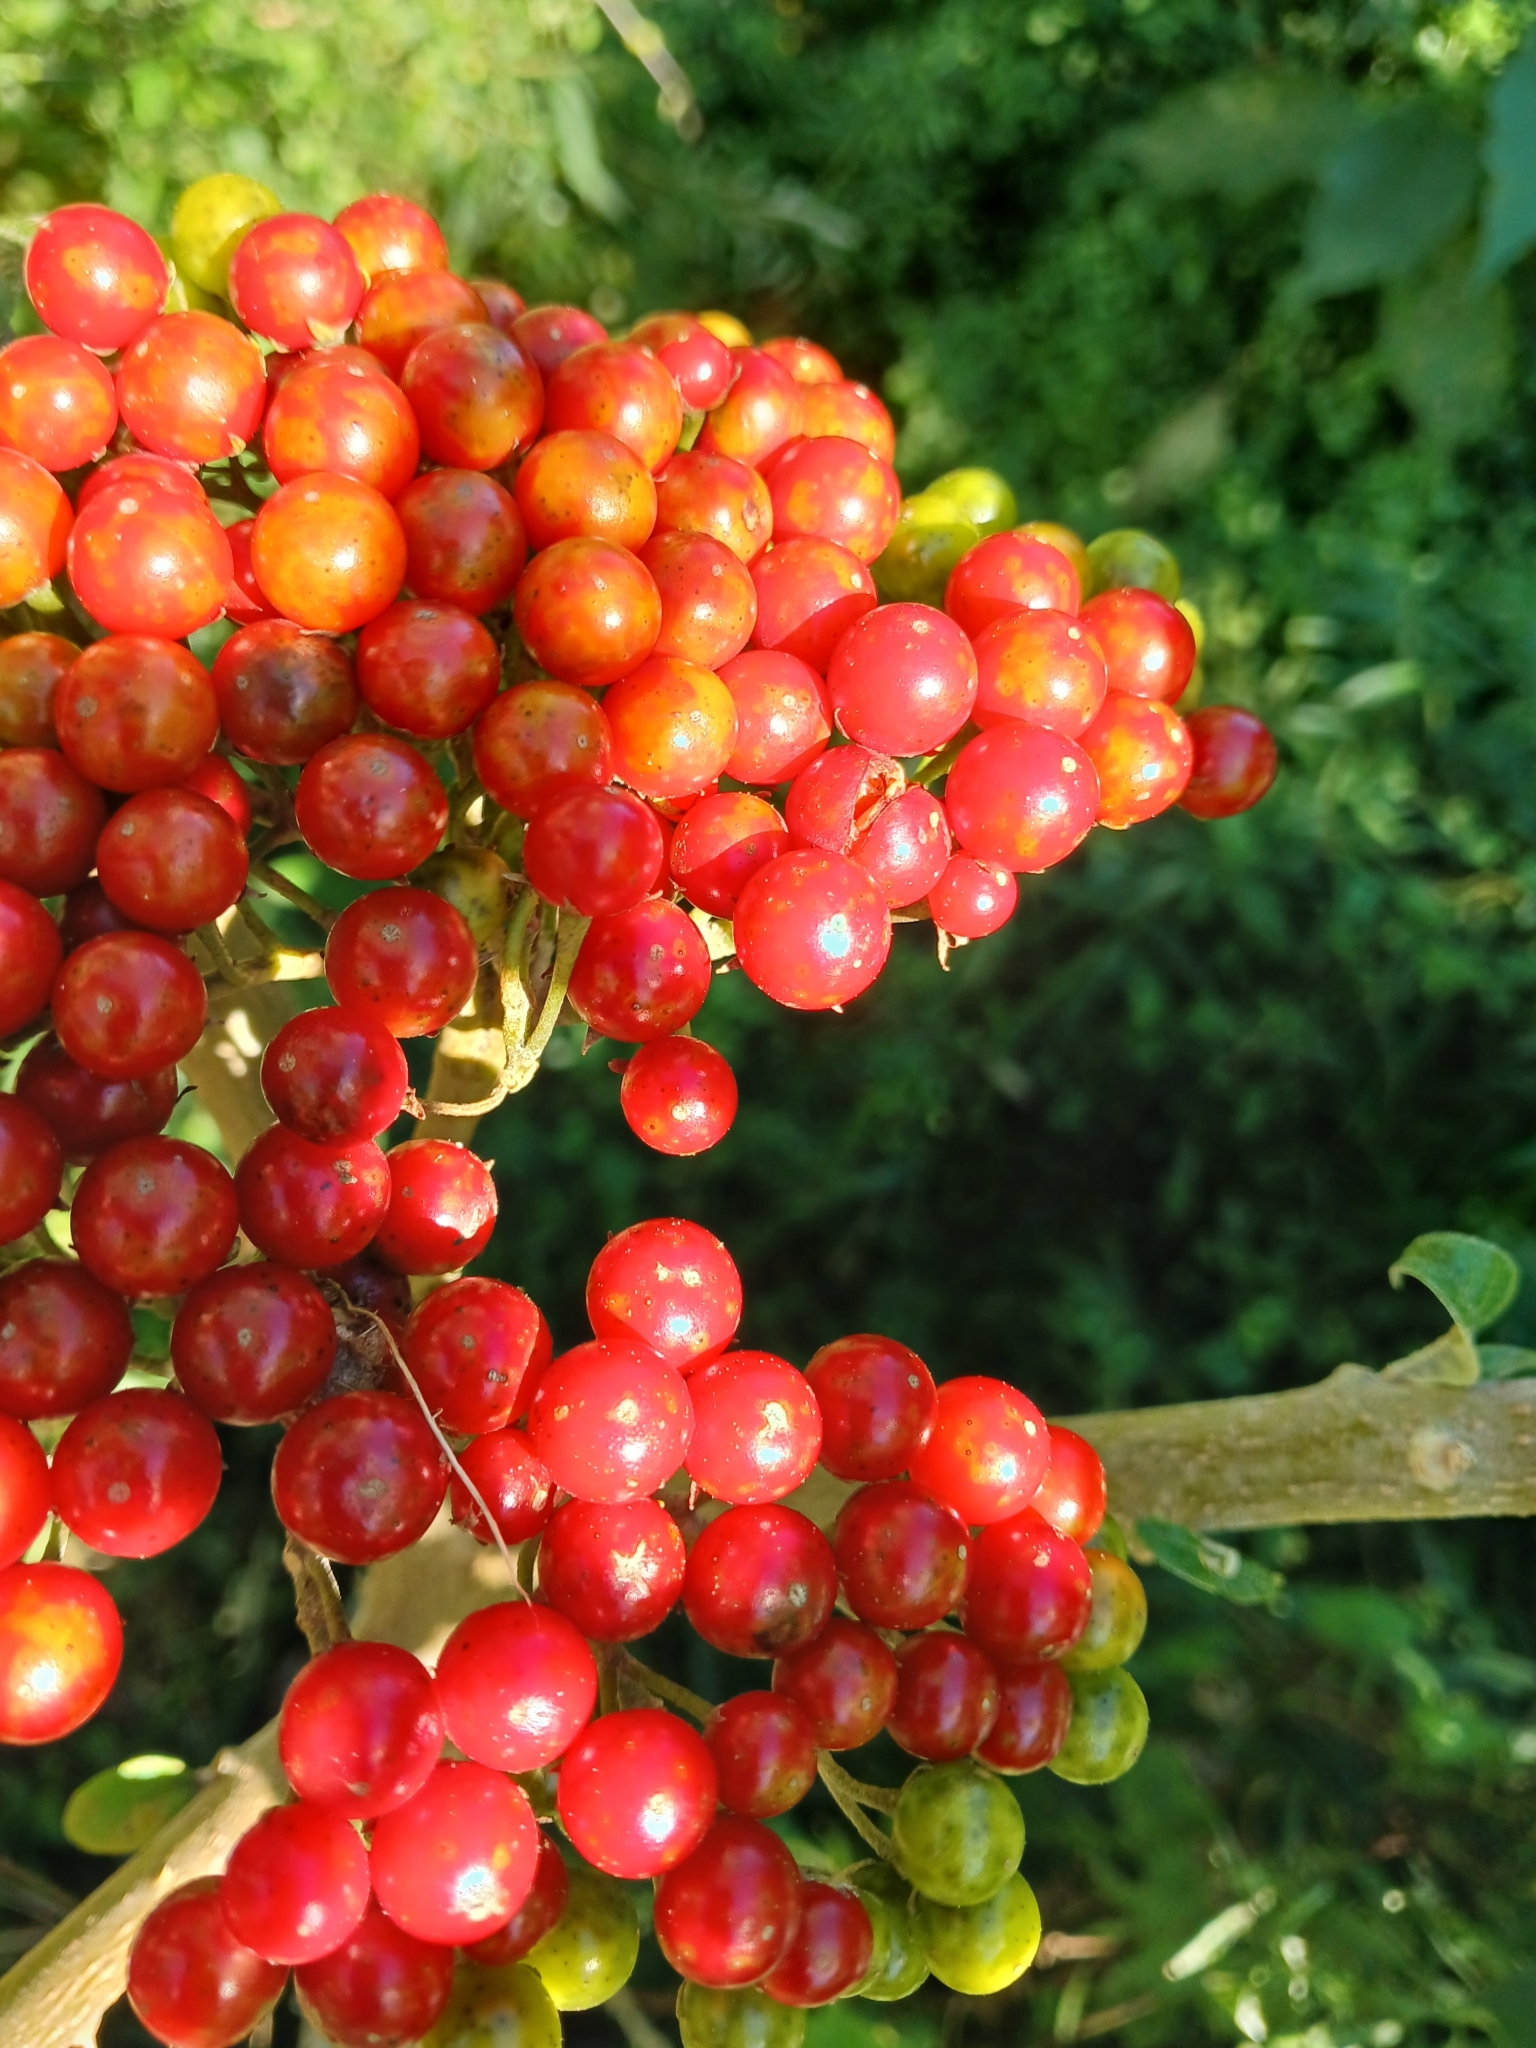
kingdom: Plantae
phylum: Tracheophyta
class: Magnoliopsida
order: Solanales
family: Solanaceae
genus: Solanum
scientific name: Solanum giganteum
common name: Healing-leaf-tree
